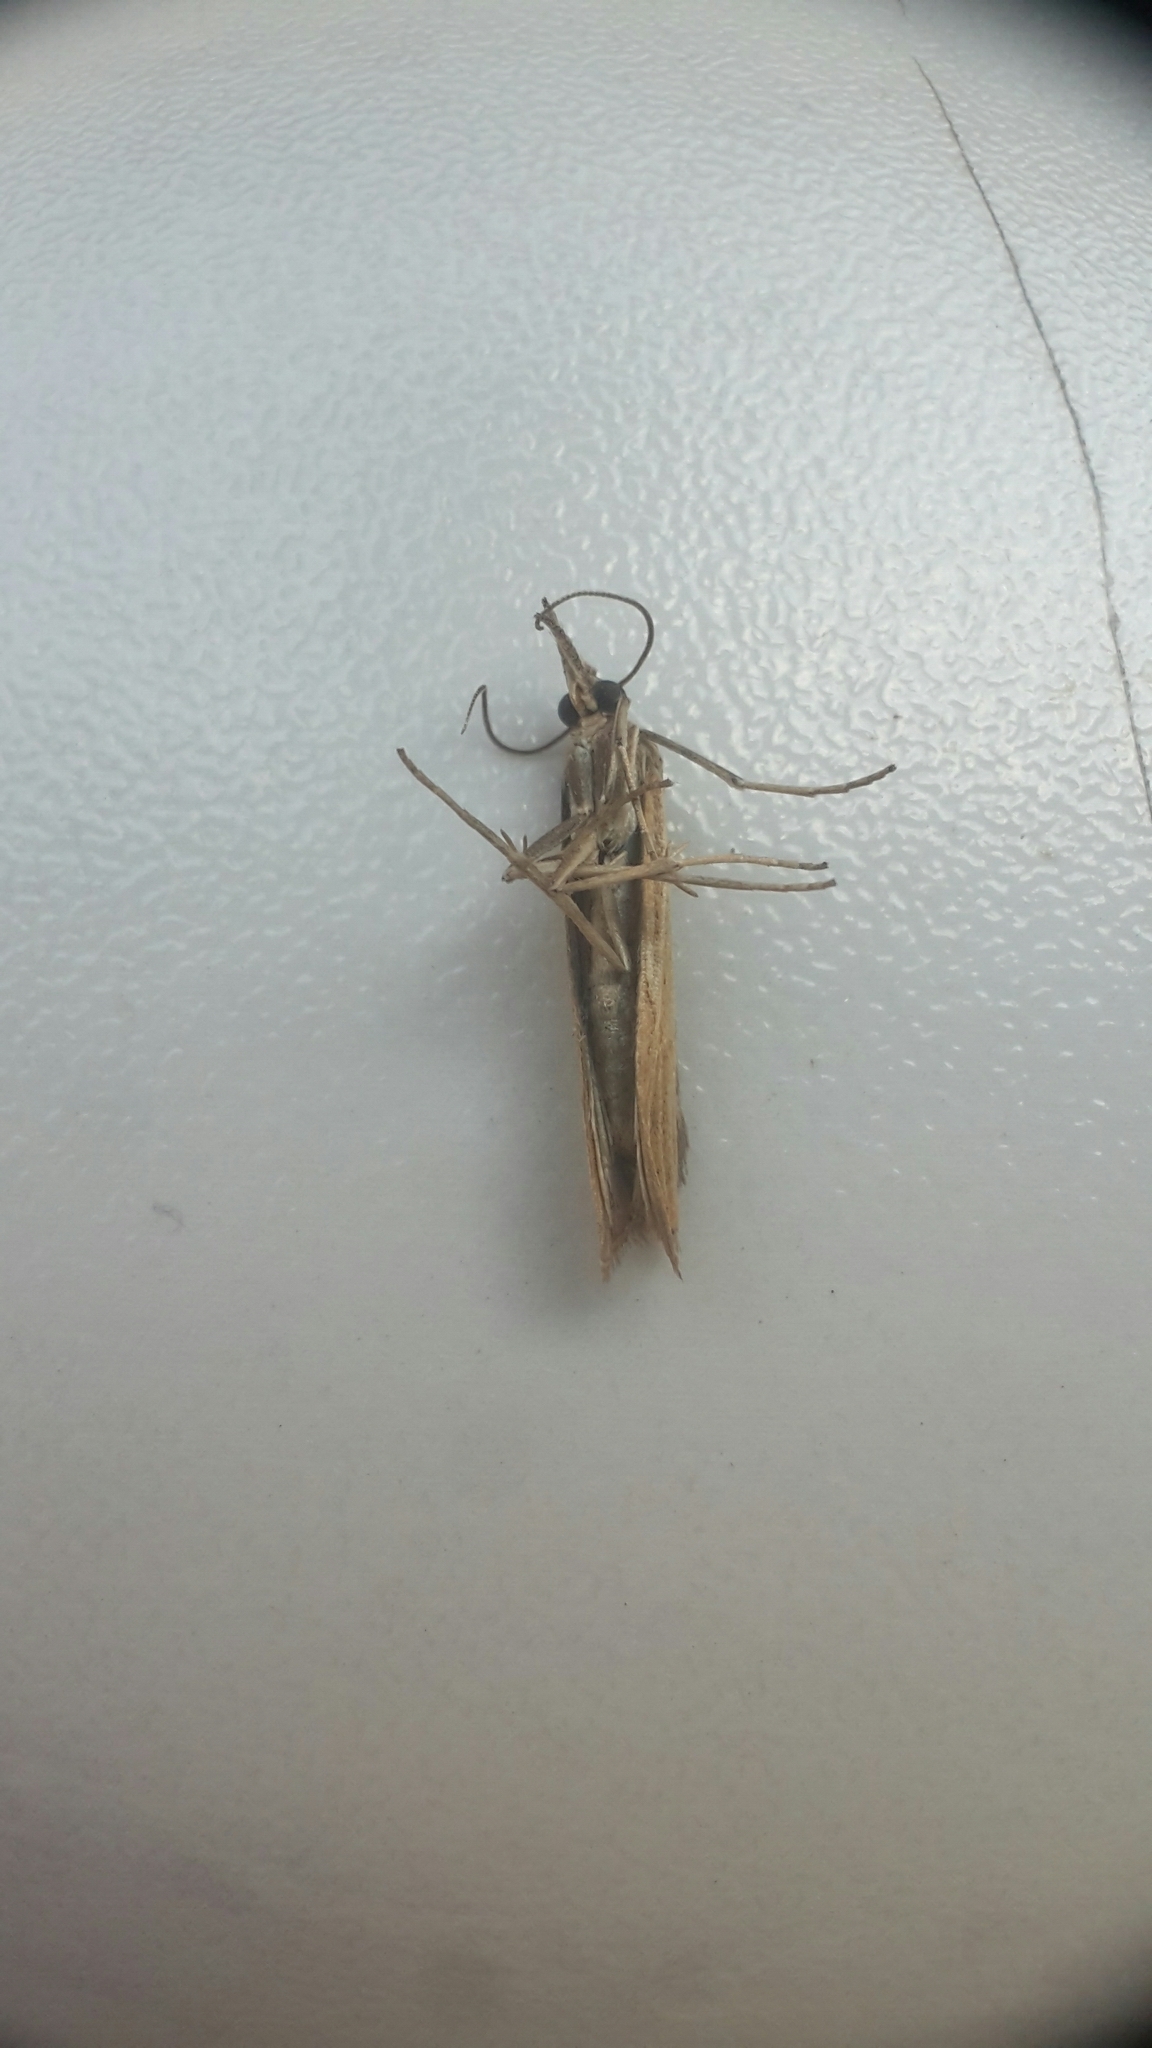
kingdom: Animalia
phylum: Arthropoda
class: Insecta
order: Lepidoptera
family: Crambidae
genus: Agriphila
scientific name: Agriphila inquinatella
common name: Barred grass-veneer
